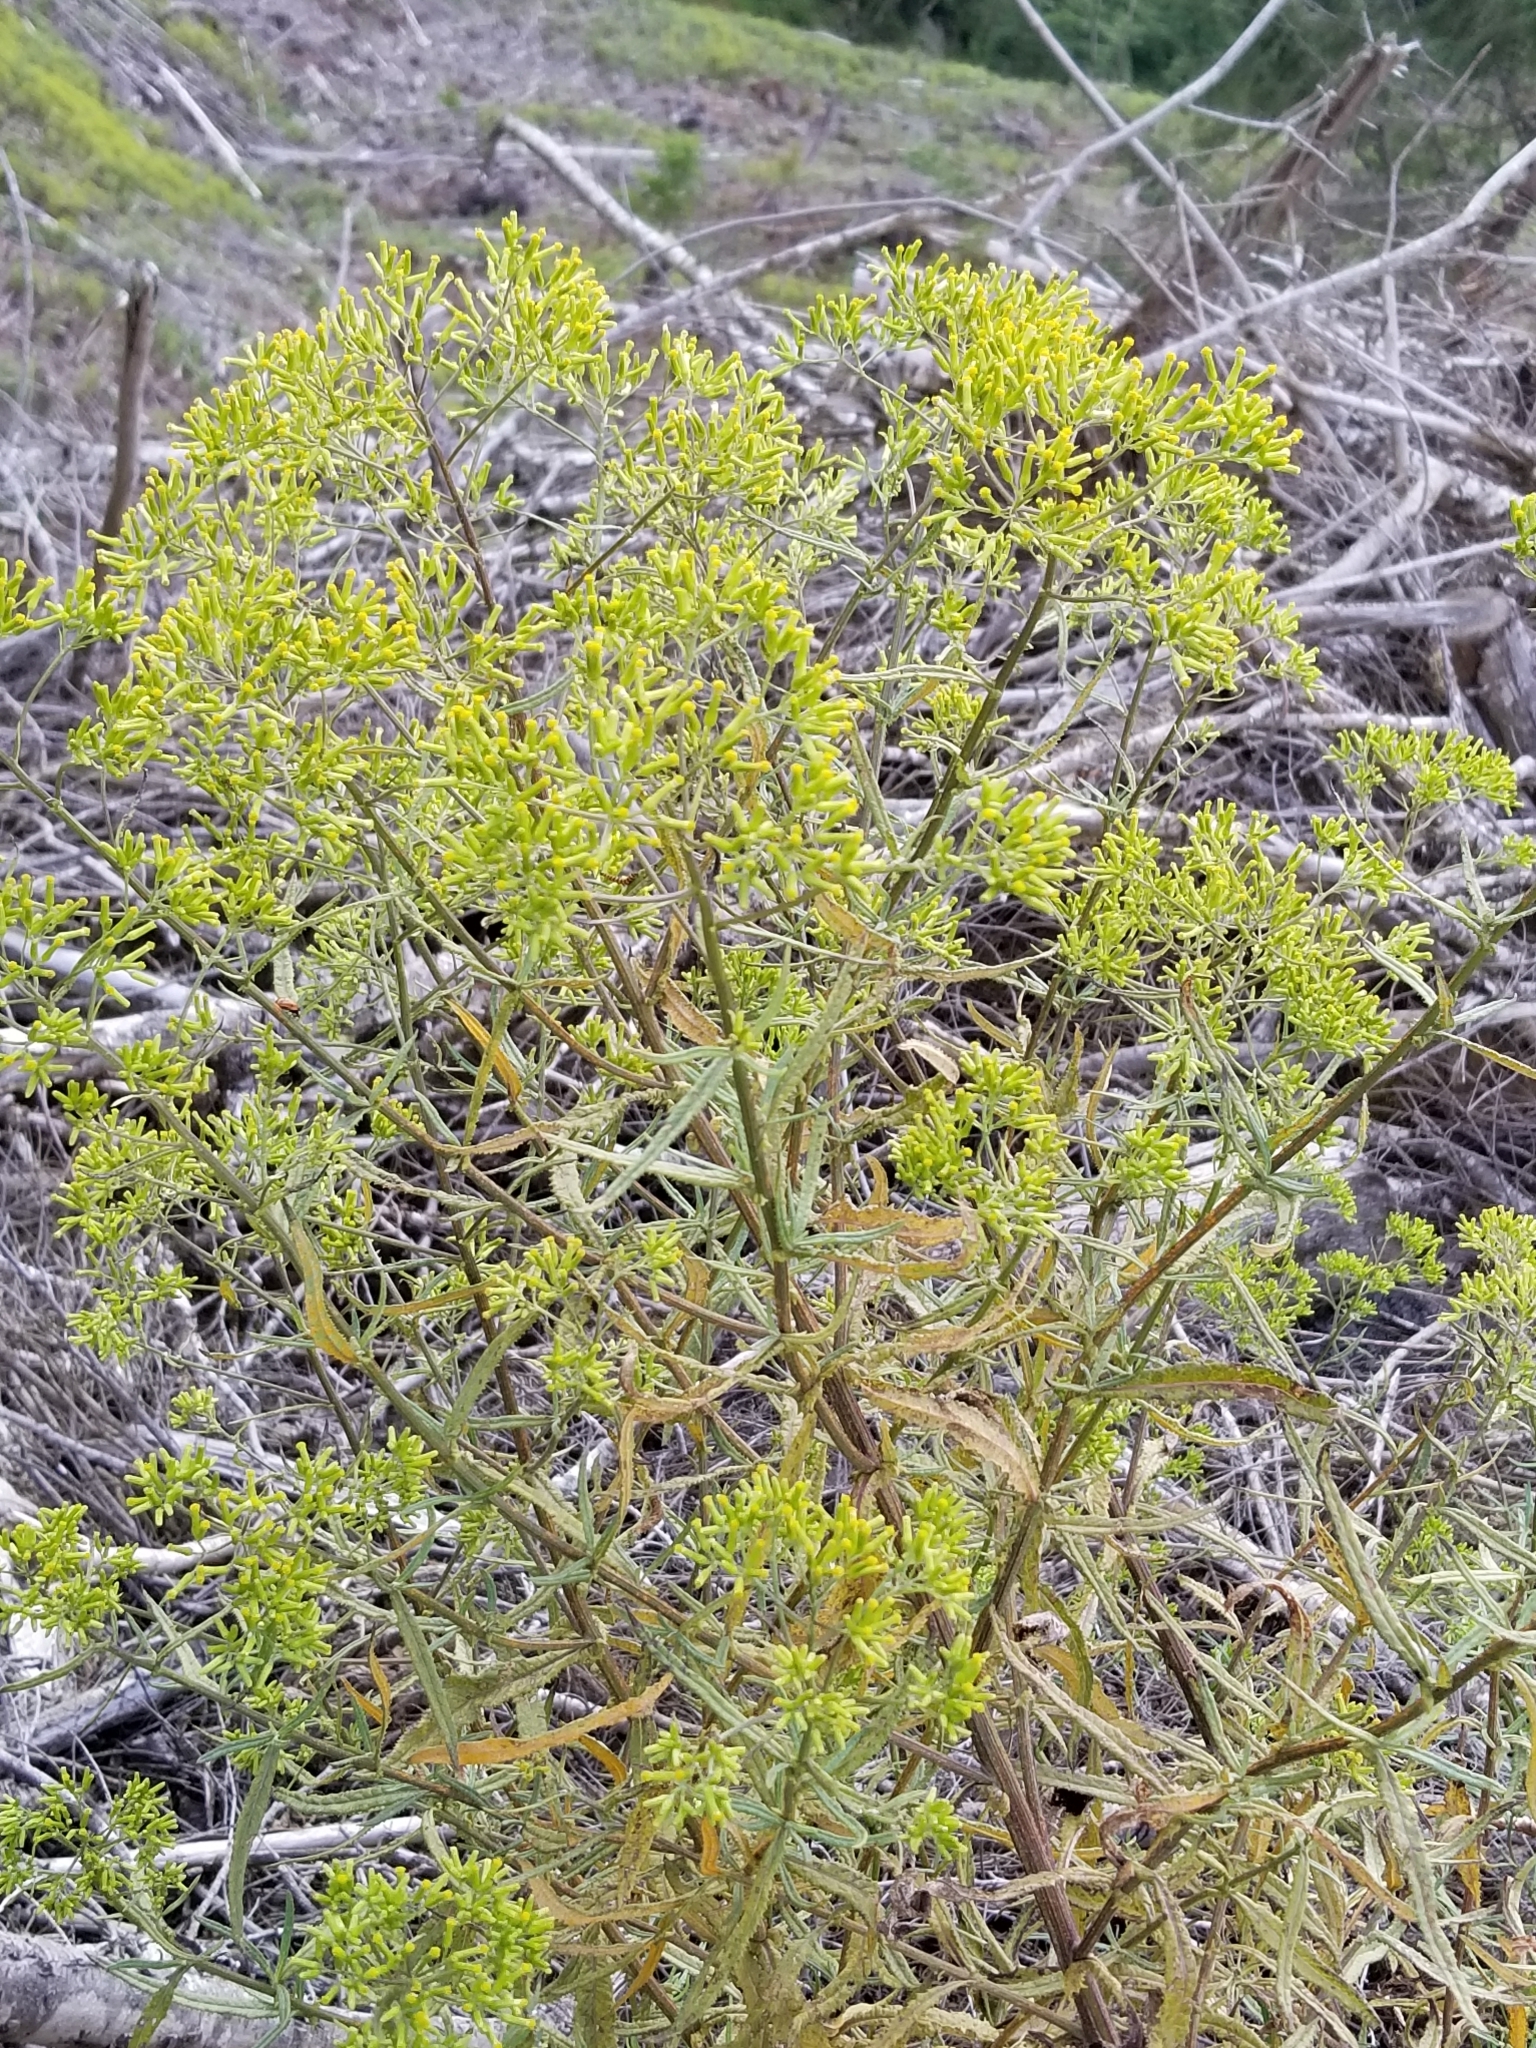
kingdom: Plantae
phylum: Tracheophyta
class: Magnoliopsida
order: Asterales
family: Asteraceae
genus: Senecio
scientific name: Senecio minimus
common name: Toothed fireweed
